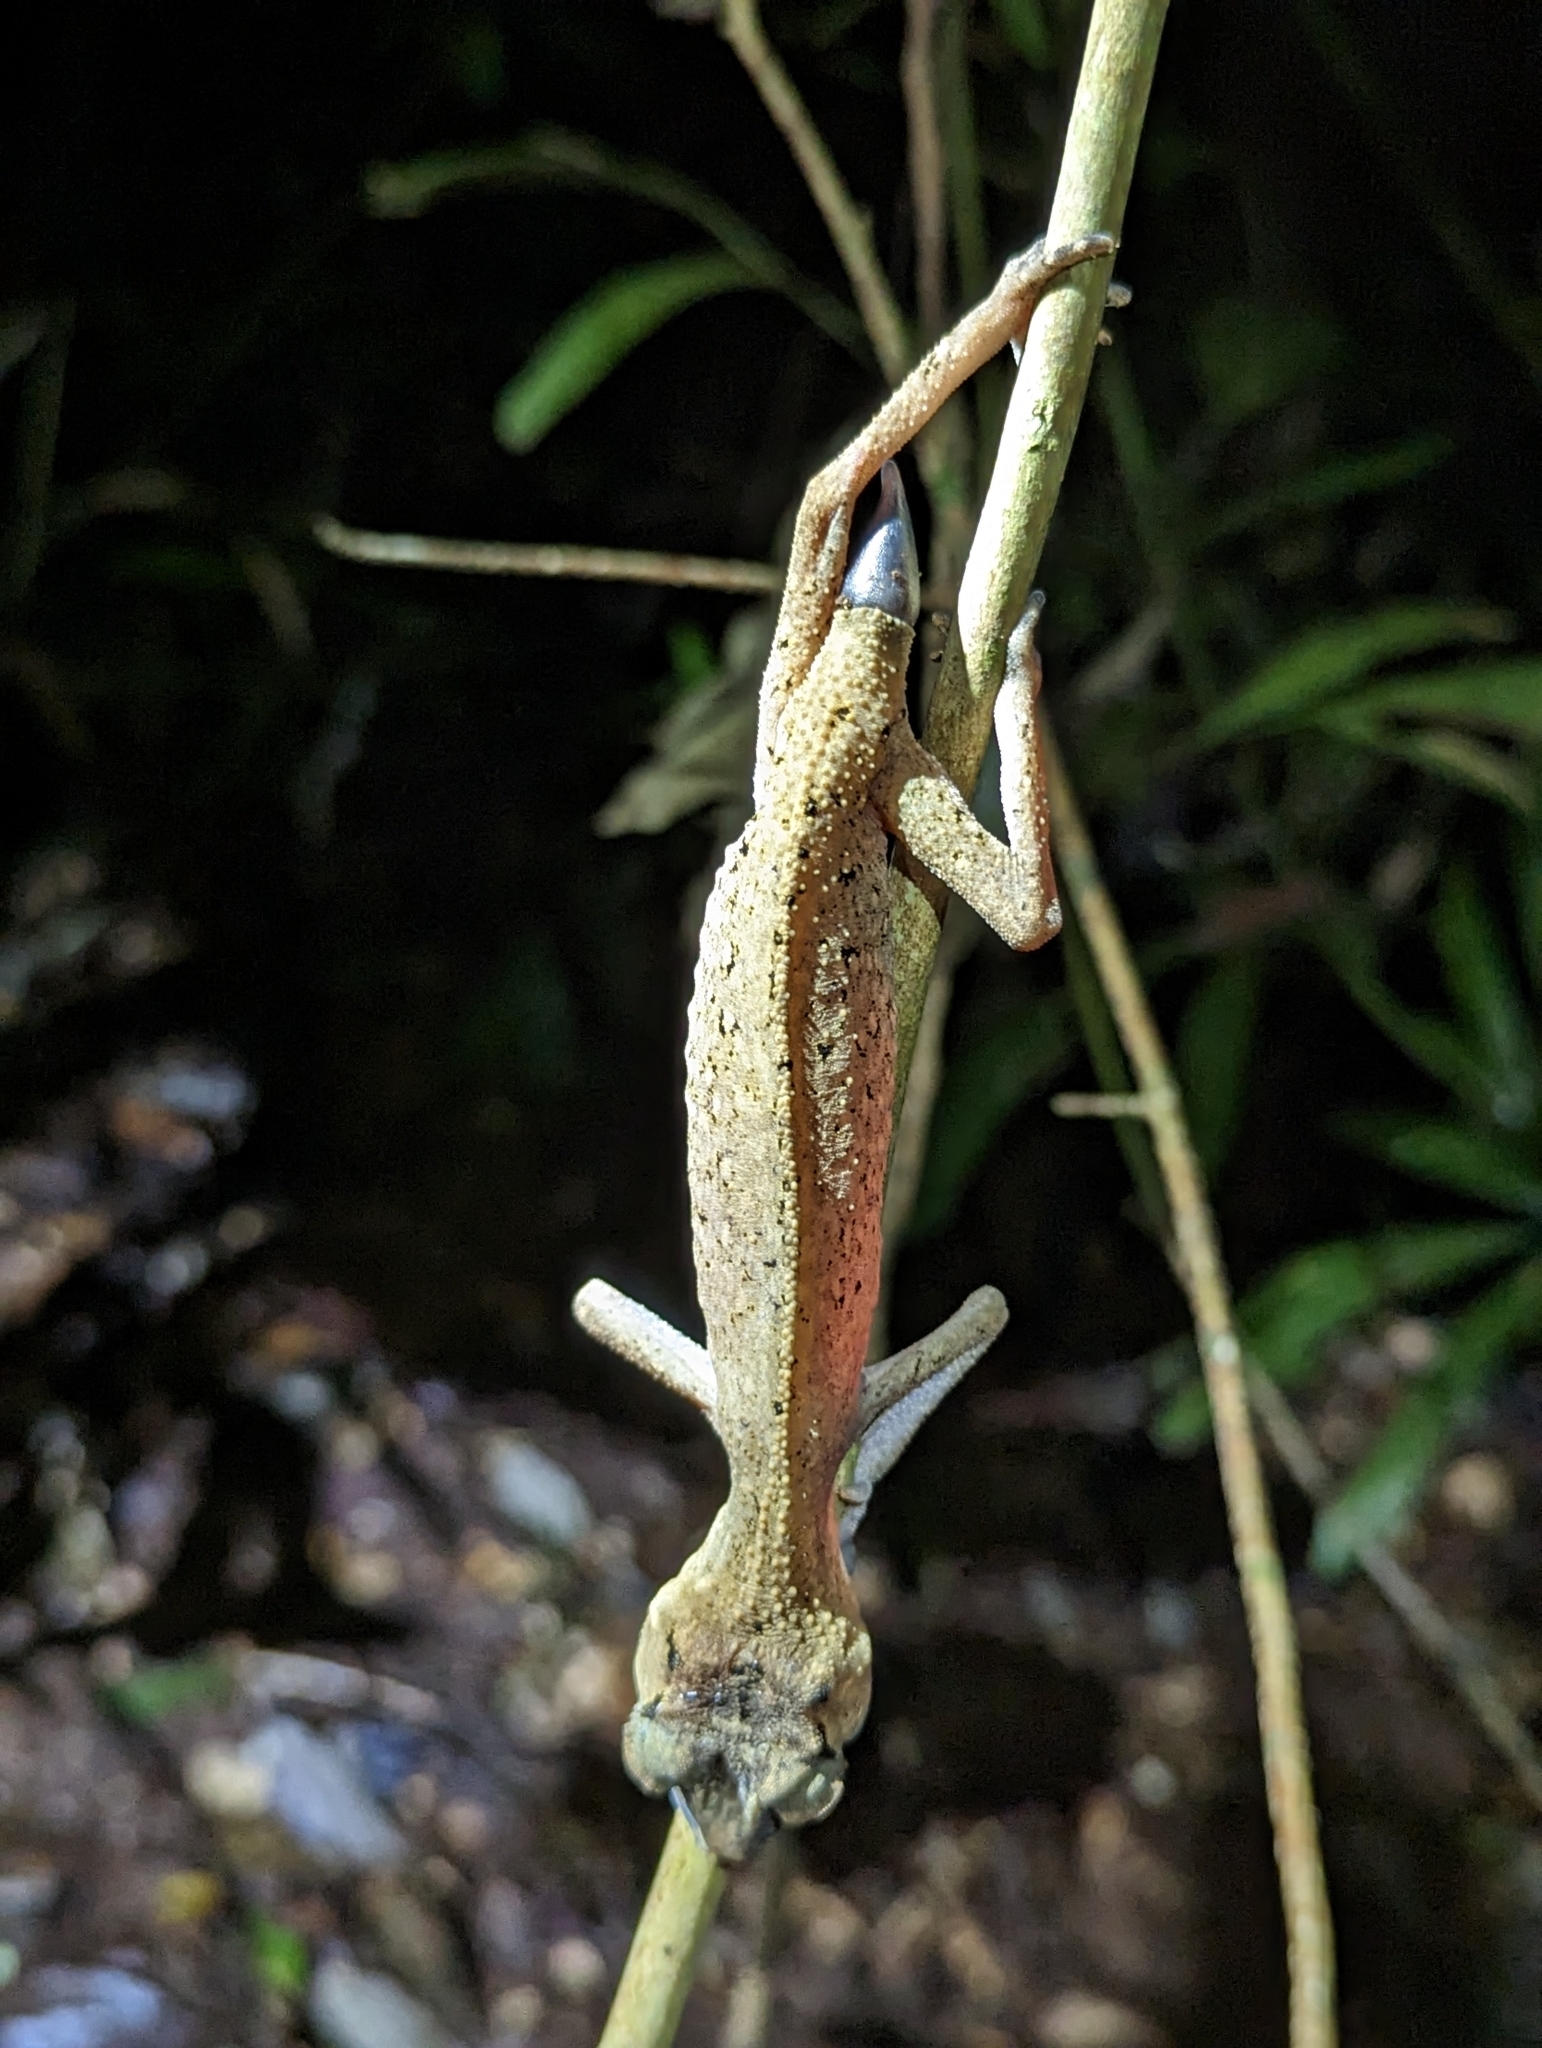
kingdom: Animalia
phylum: Chordata
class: Squamata
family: Carphodactylidae
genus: Carphodactylus
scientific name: Carphodactylus laevis
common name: Chameleon gecko
